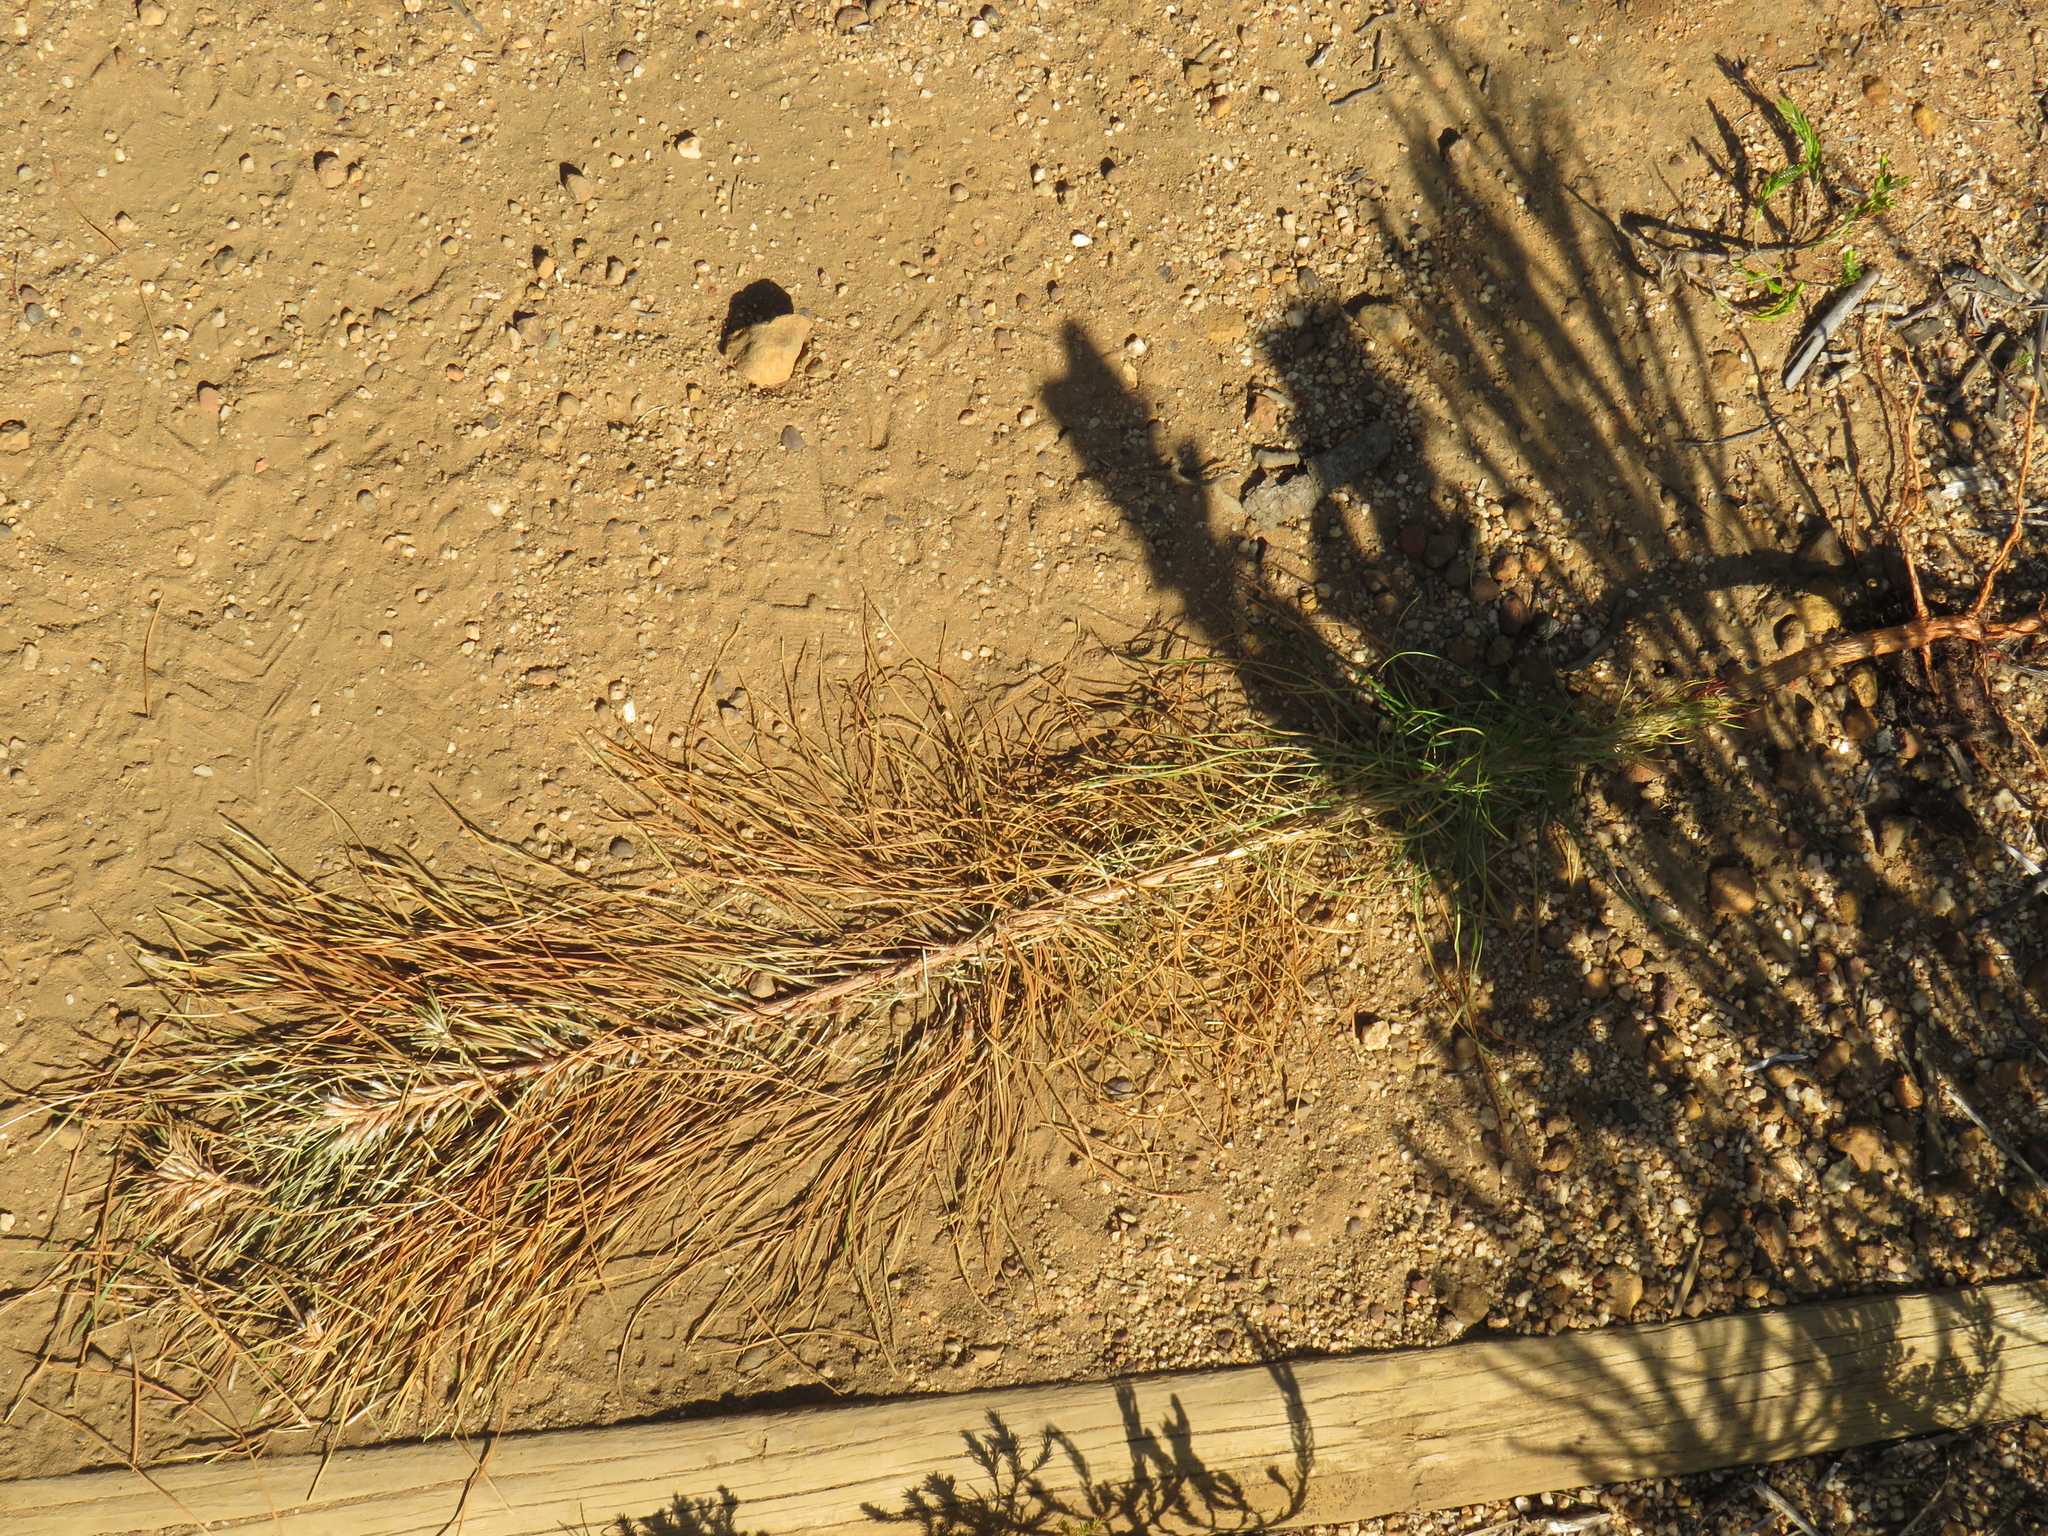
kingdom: Plantae
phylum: Tracheophyta
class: Pinopsida
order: Pinales
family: Pinaceae
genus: Pinus
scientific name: Pinus radiata
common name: Monterey pine
